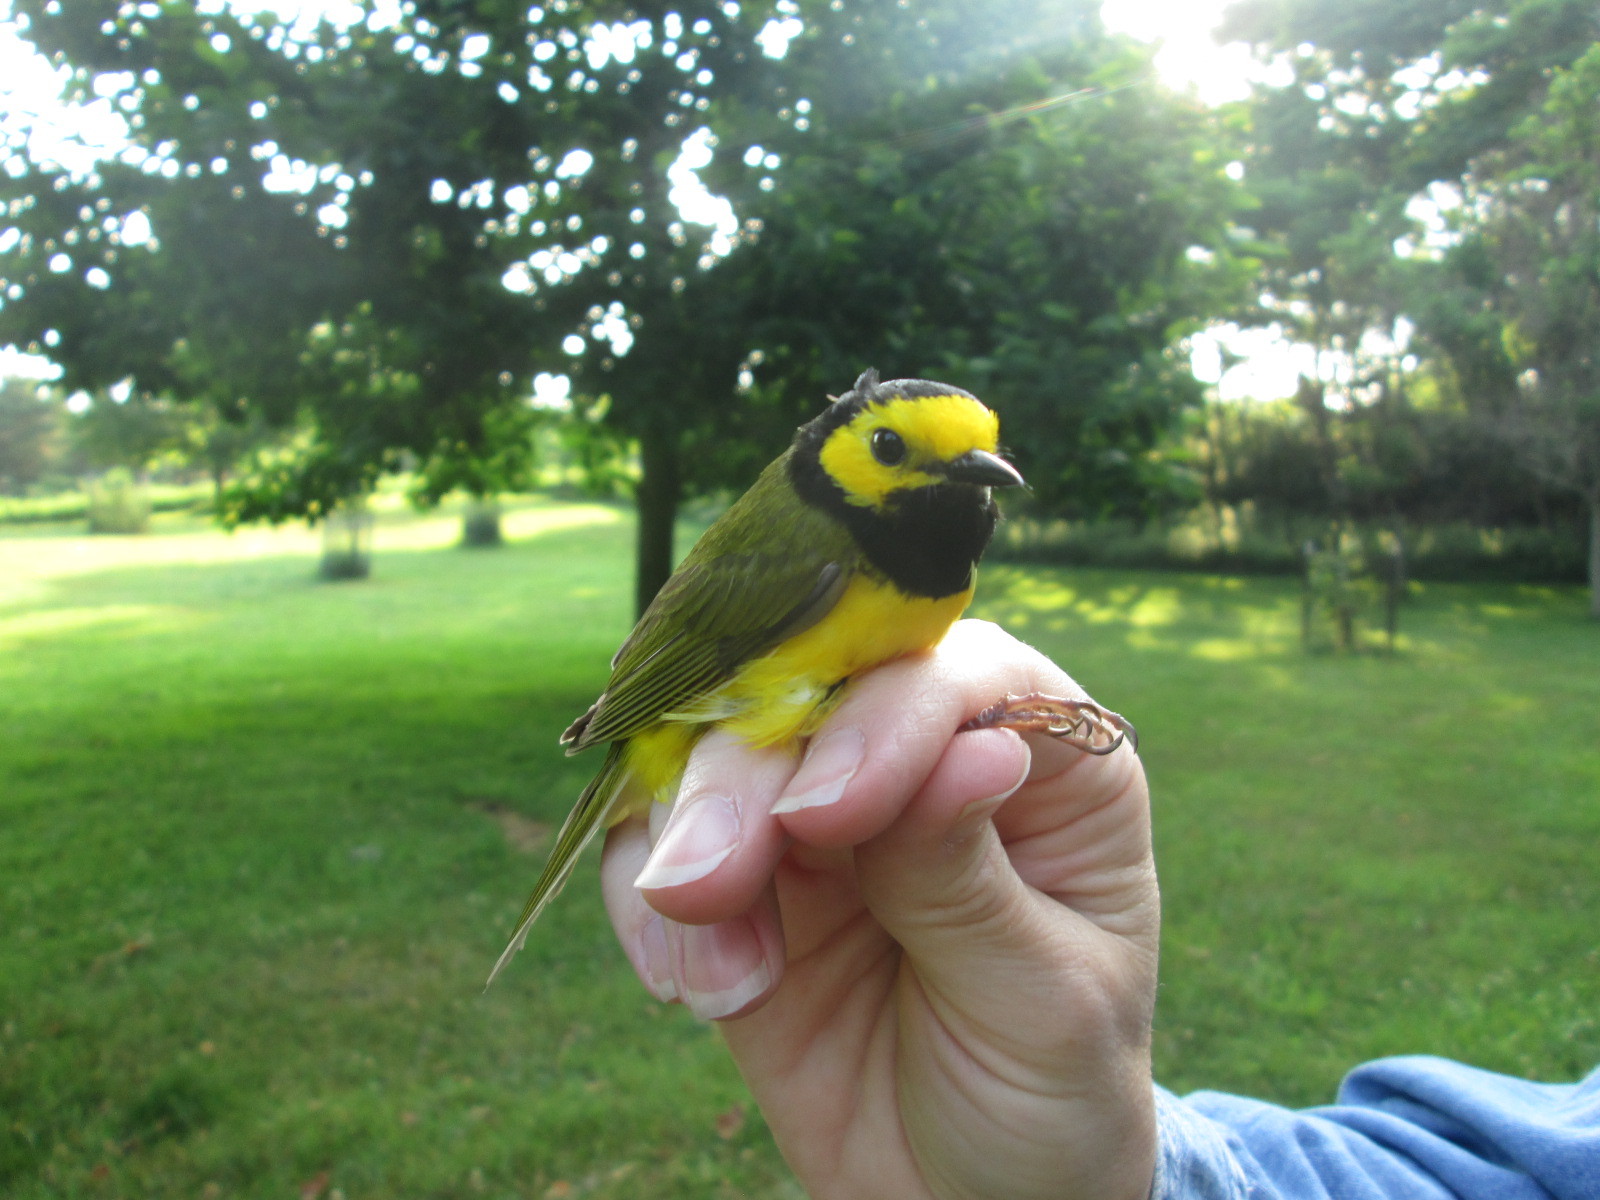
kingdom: Animalia
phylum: Chordata
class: Aves
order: Passeriformes
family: Parulidae
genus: Setophaga
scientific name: Setophaga citrina
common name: Hooded warbler
